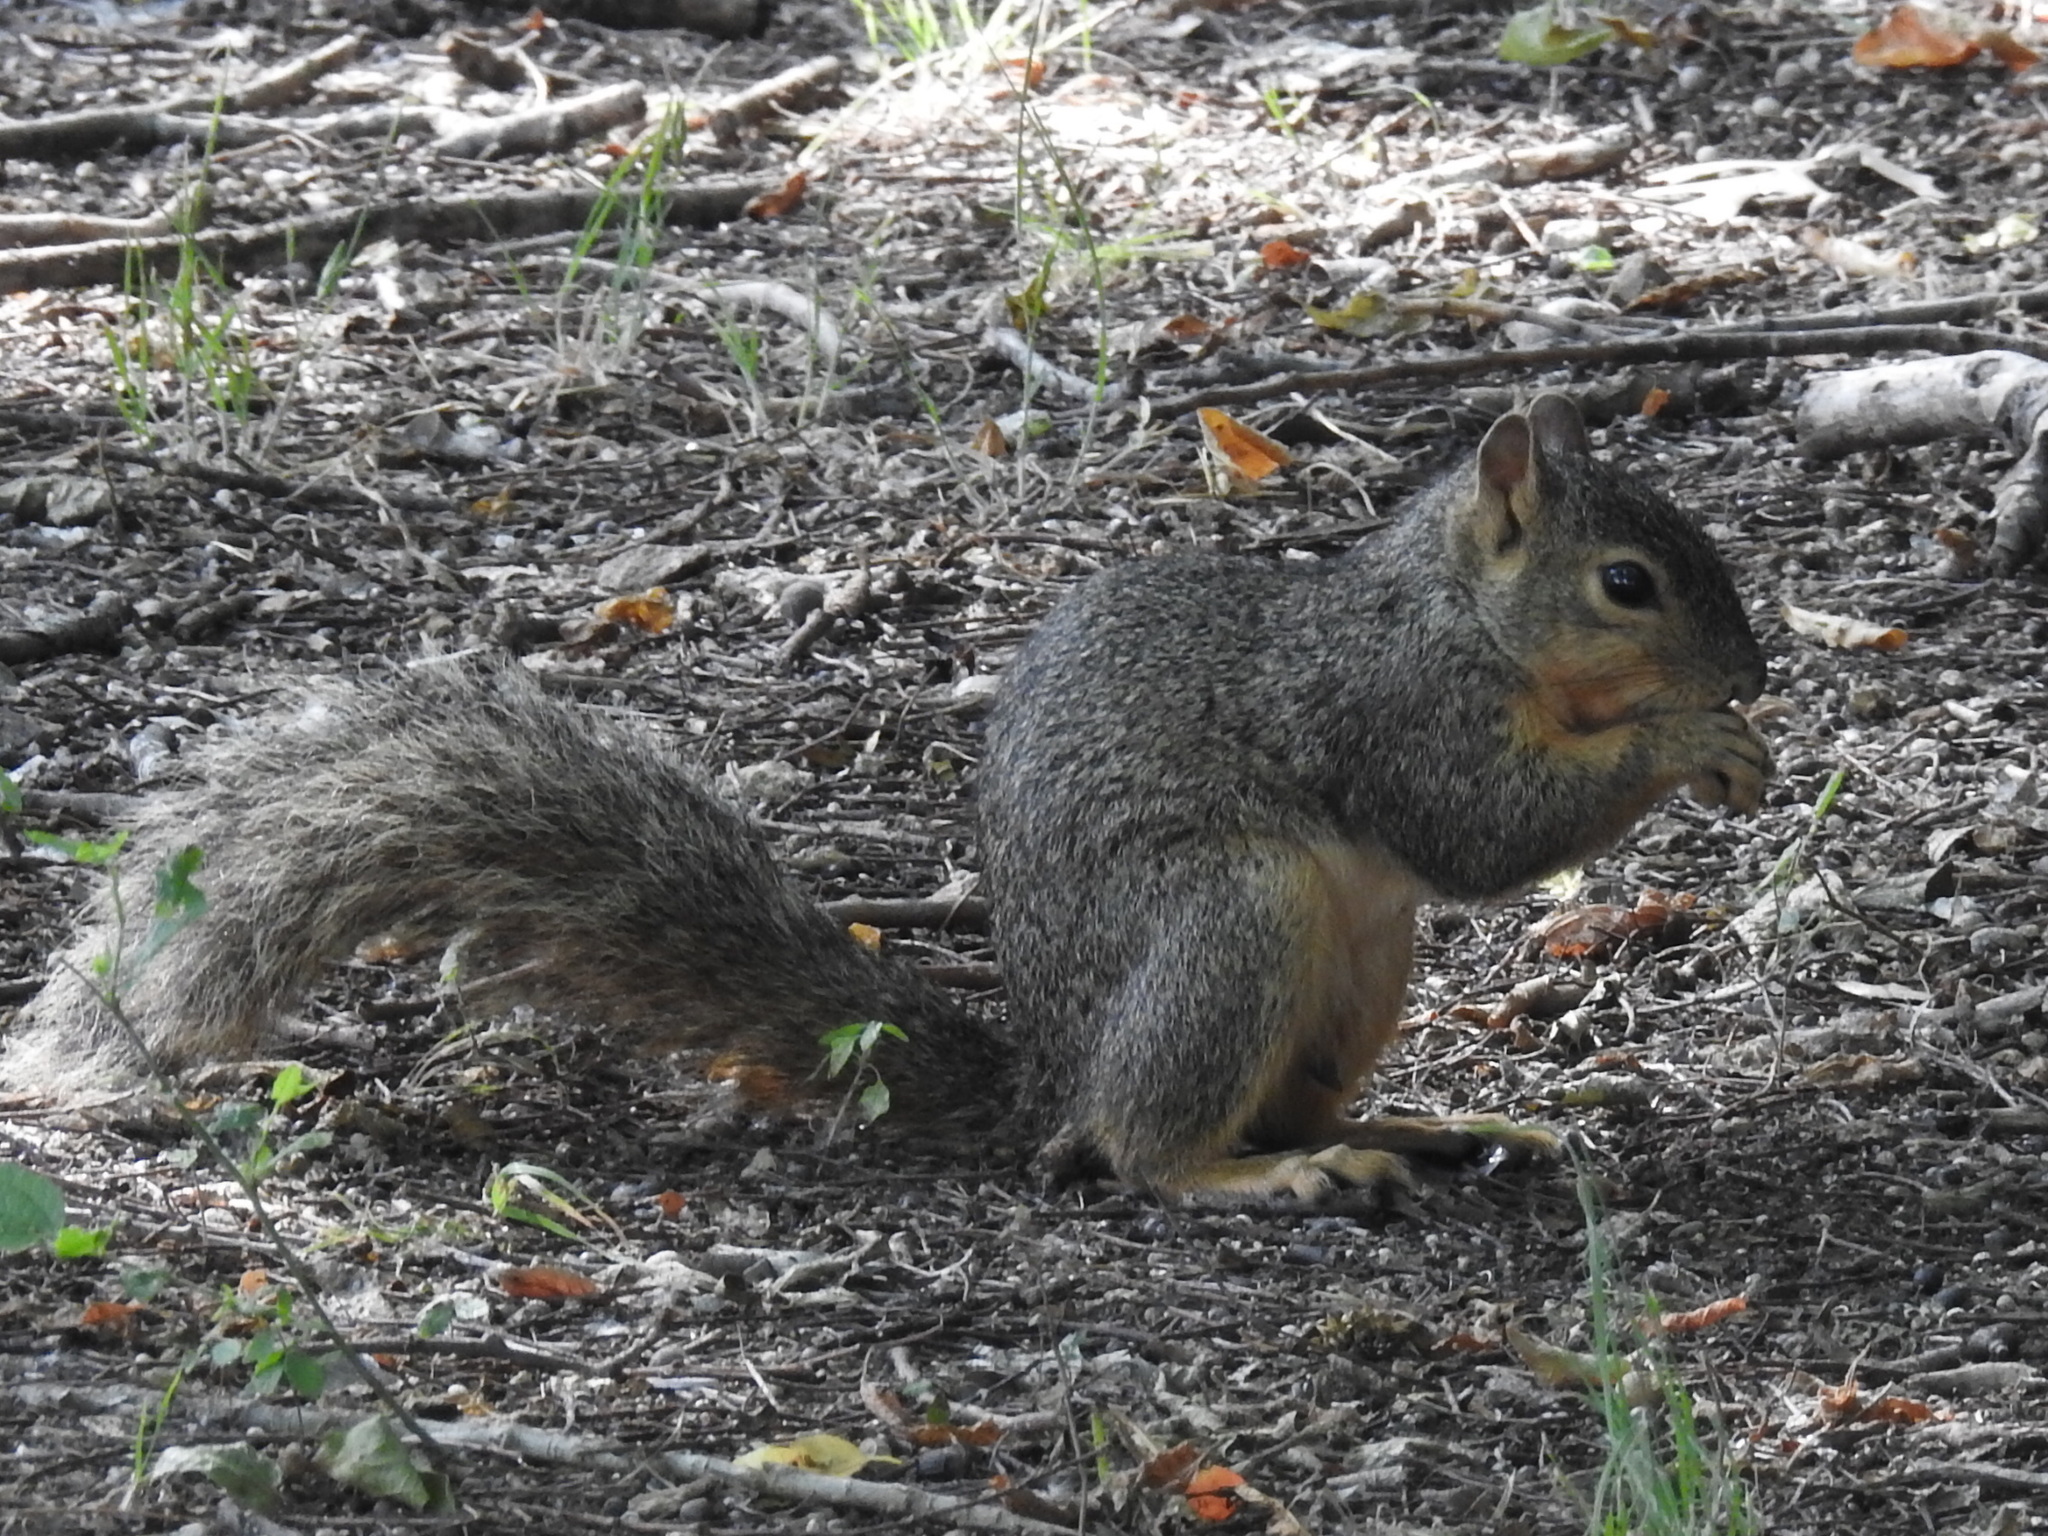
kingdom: Animalia
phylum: Chordata
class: Mammalia
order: Rodentia
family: Sciuridae
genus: Sciurus
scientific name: Sciurus niger
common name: Fox squirrel
